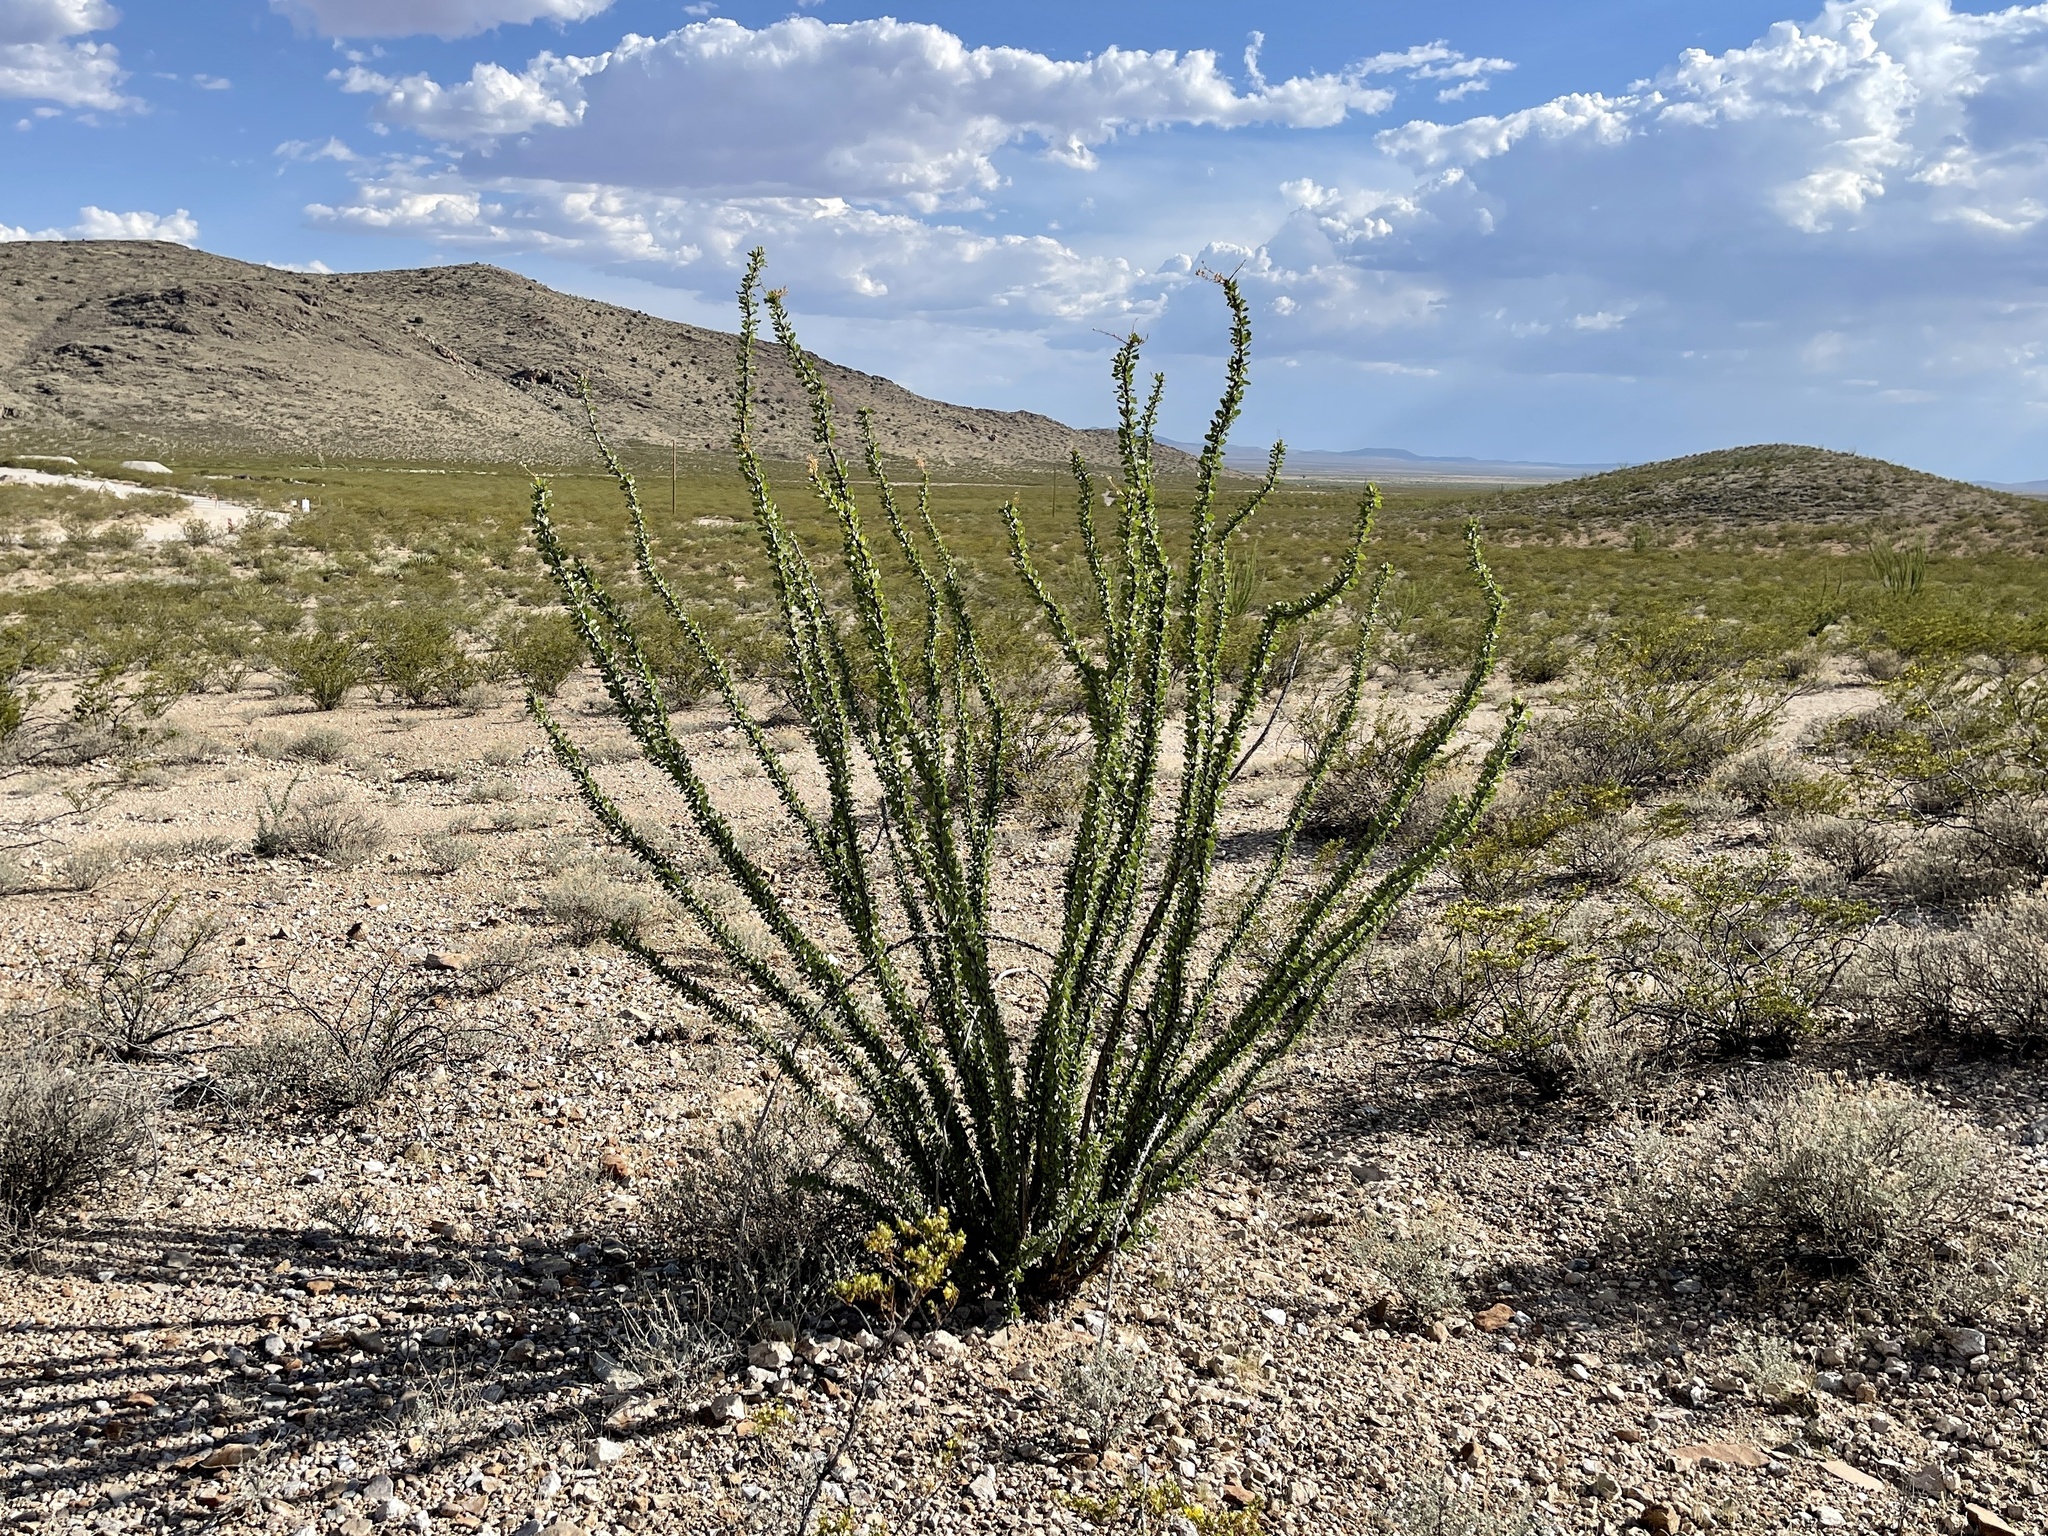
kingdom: Plantae
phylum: Tracheophyta
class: Magnoliopsida
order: Ericales
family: Fouquieriaceae
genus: Fouquieria
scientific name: Fouquieria splendens
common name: Vine-cactus
